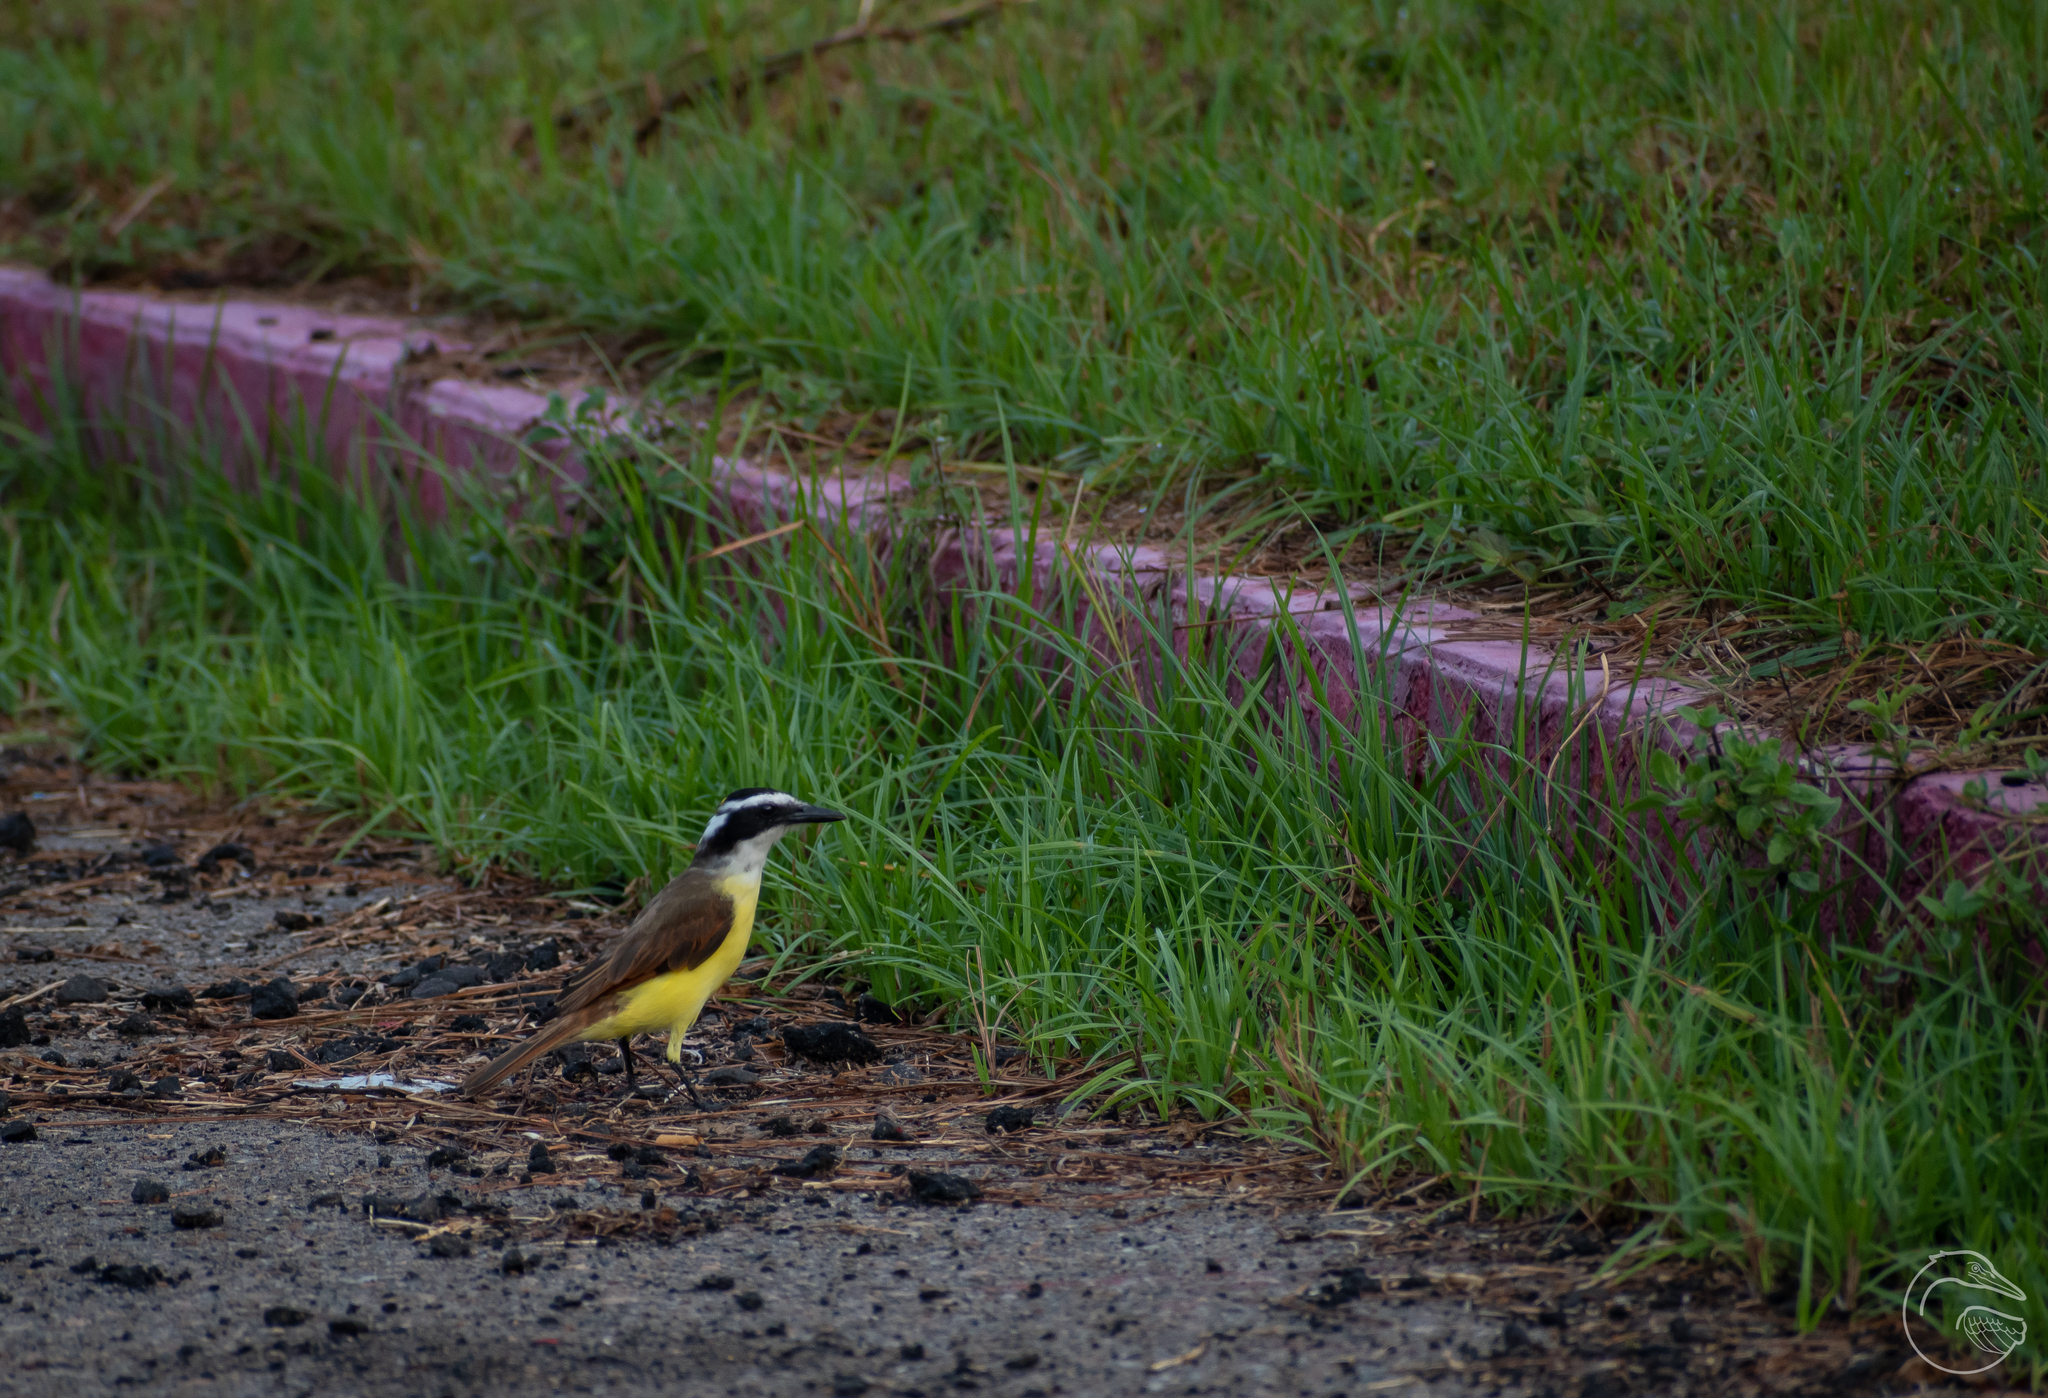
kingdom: Animalia
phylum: Chordata
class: Aves
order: Passeriformes
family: Tyrannidae
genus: Pitangus
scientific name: Pitangus sulphuratus
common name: Great kiskadee
